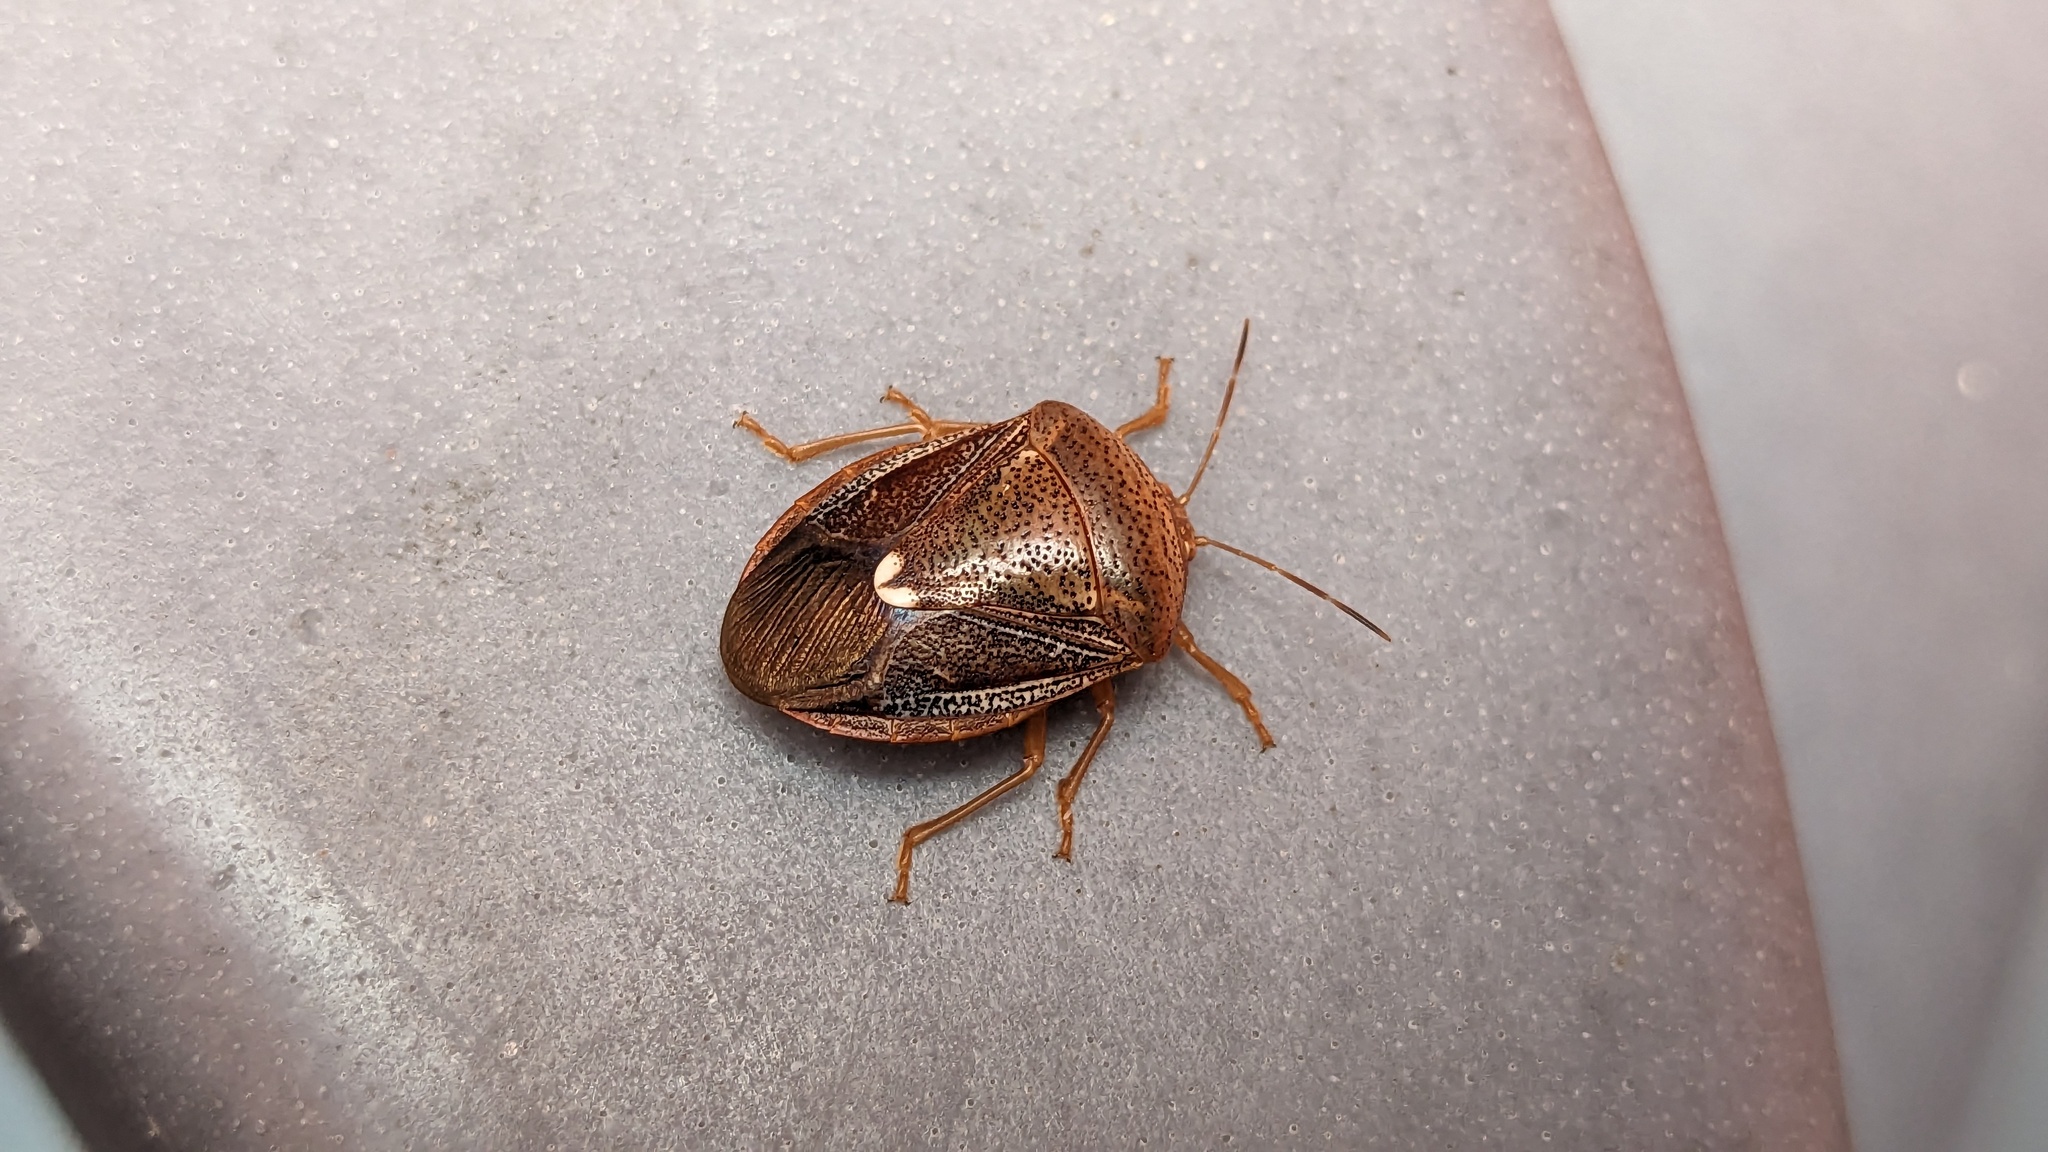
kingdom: Animalia
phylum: Arthropoda
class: Insecta
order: Hemiptera
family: Pentatomidae
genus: Edessa
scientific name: Edessa bifida
